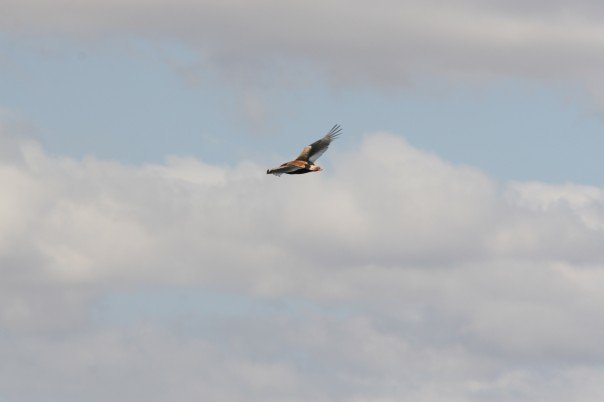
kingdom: Animalia
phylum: Chordata
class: Aves
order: Accipitriformes
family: Accipitridae
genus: Terathopius
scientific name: Terathopius ecaudatus
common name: Bateleur
